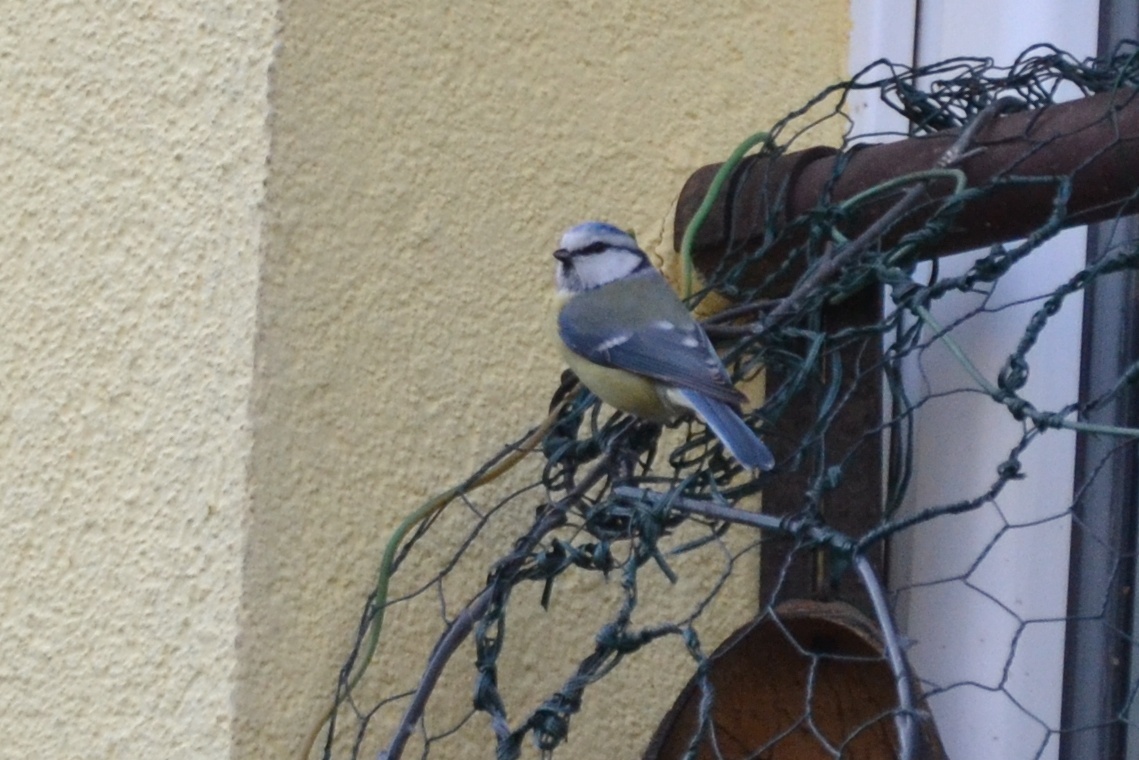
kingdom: Animalia
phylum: Chordata
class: Aves
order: Passeriformes
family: Paridae
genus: Cyanistes
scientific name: Cyanistes caeruleus
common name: Eurasian blue tit
